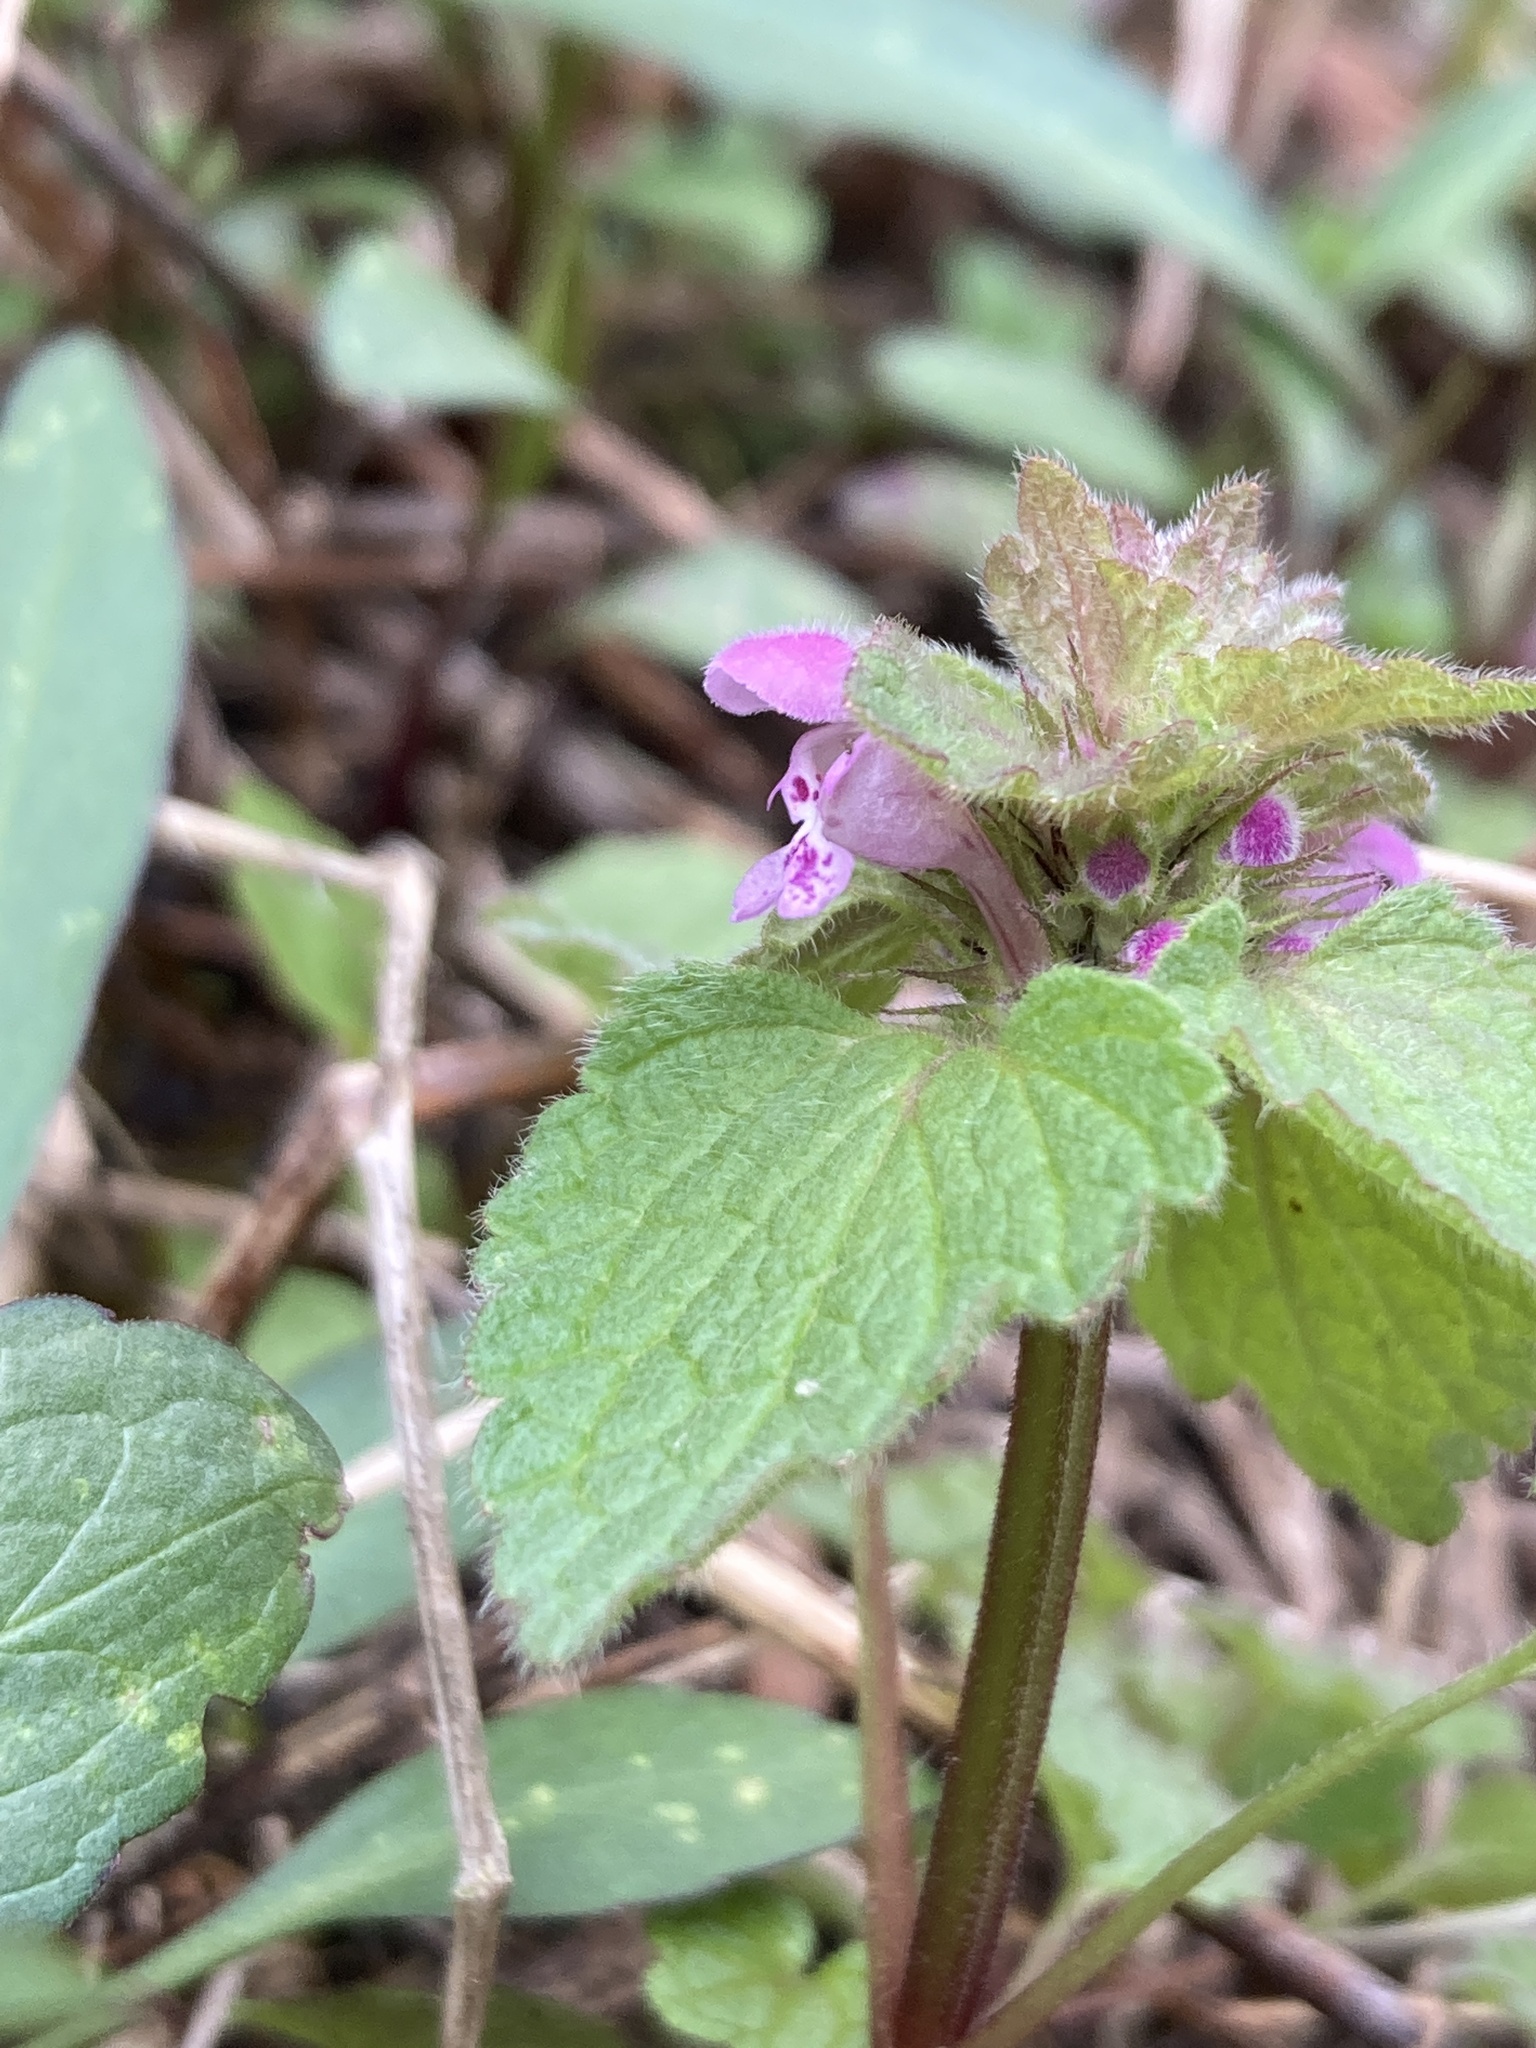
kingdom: Plantae
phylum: Tracheophyta
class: Magnoliopsida
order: Lamiales
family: Lamiaceae
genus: Lamium
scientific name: Lamium purpureum
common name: Red dead-nettle
